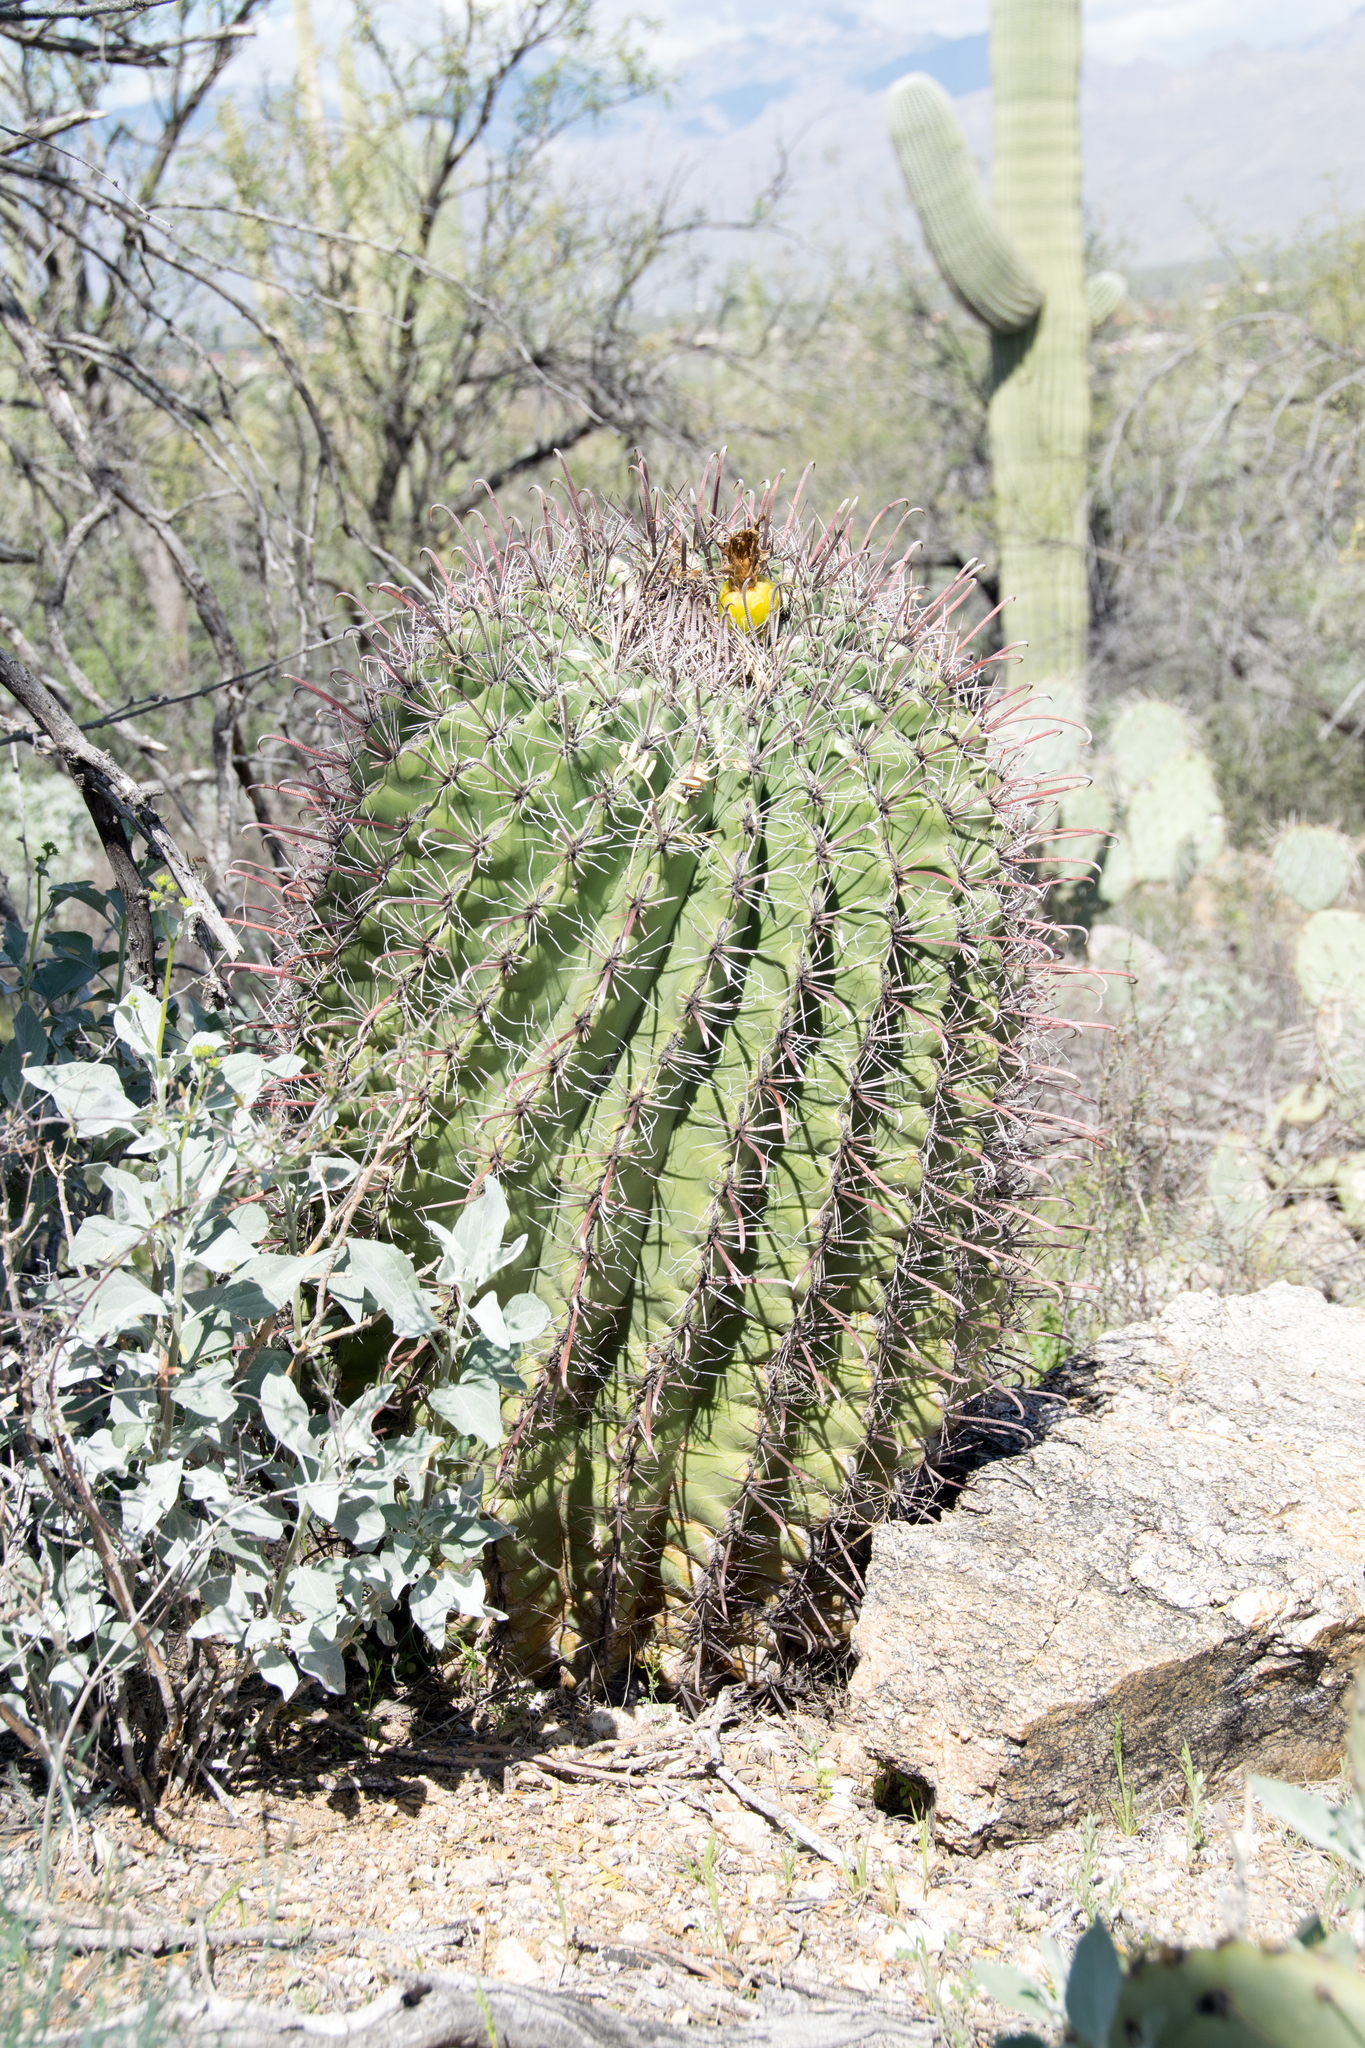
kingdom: Plantae
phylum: Tracheophyta
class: Magnoliopsida
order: Caryophyllales
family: Cactaceae
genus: Ferocactus
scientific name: Ferocactus wislizeni
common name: Candy barrel cactus
